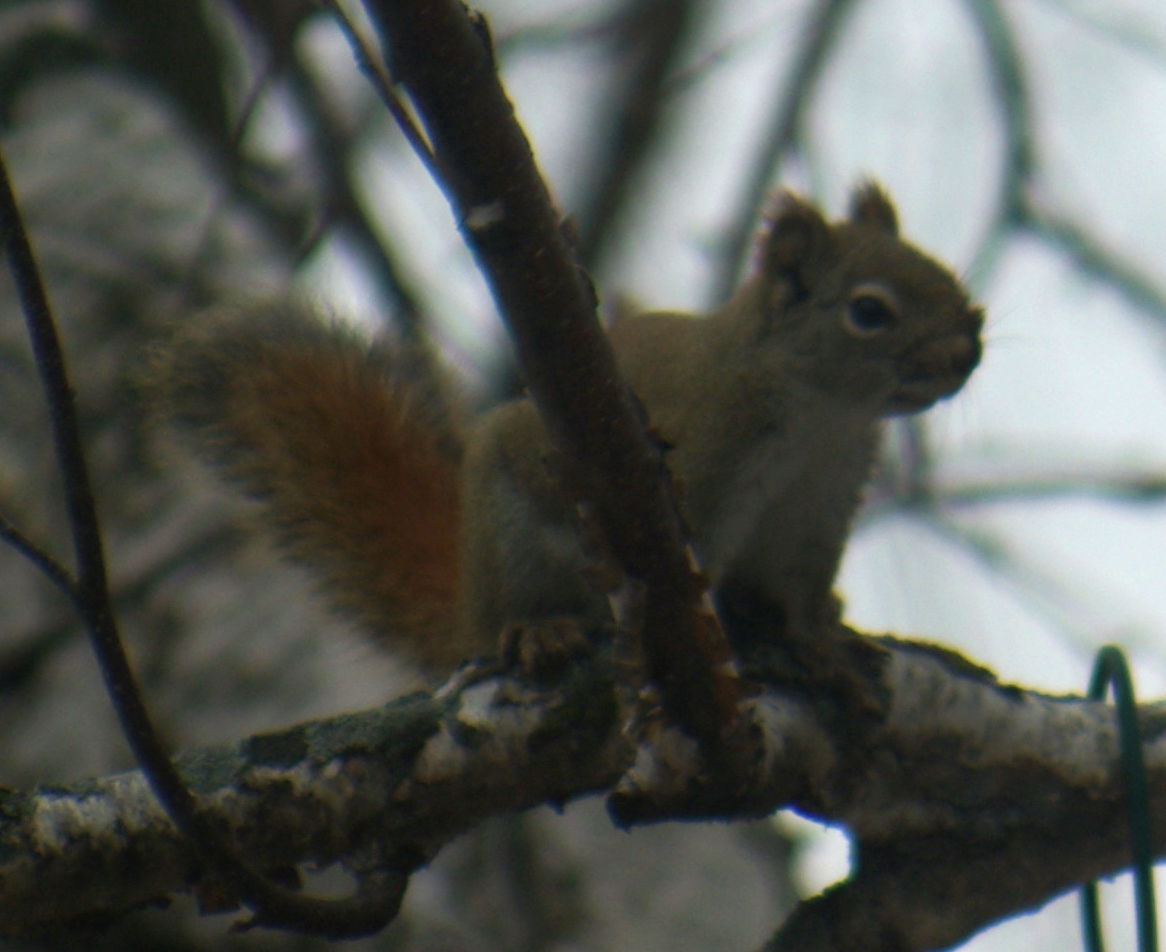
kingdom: Animalia
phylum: Chordata
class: Mammalia
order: Rodentia
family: Sciuridae
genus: Tamiasciurus
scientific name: Tamiasciurus hudsonicus
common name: Red squirrel
